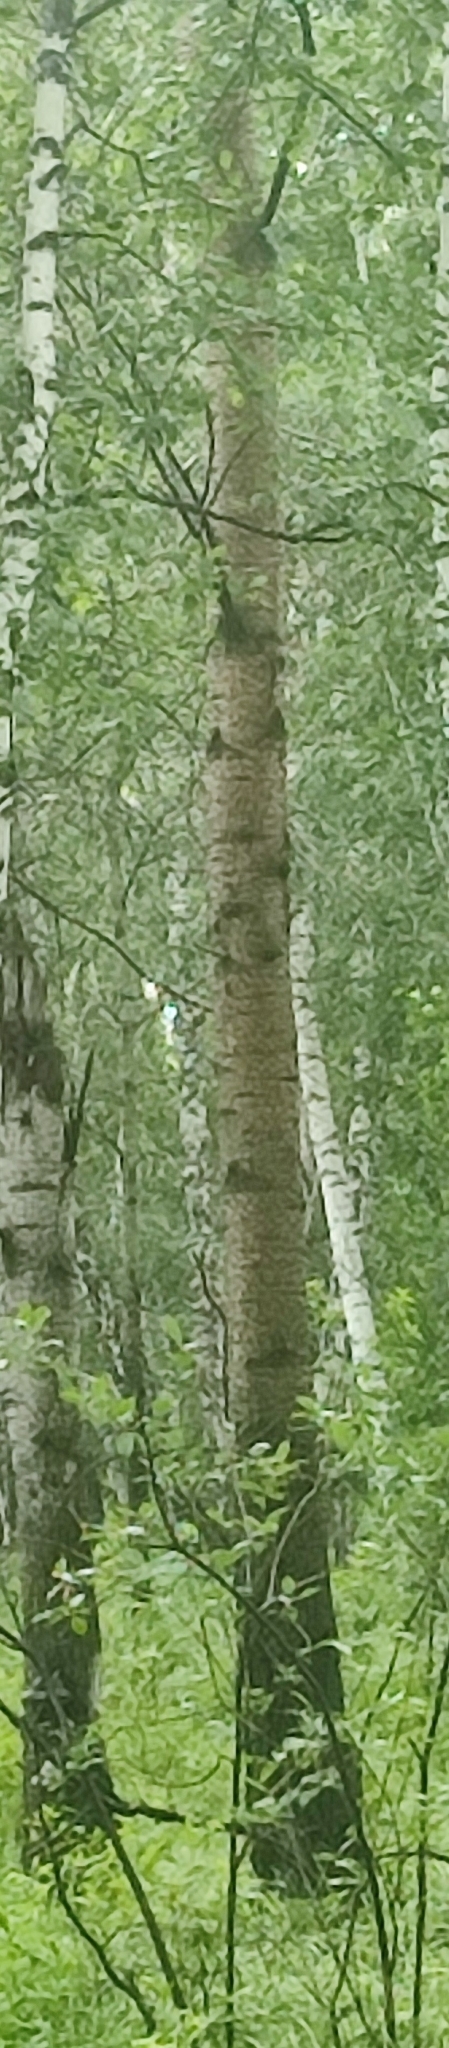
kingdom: Plantae
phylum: Tracheophyta
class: Magnoliopsida
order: Malpighiales
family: Salicaceae
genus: Populus
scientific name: Populus tremula
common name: European aspen
